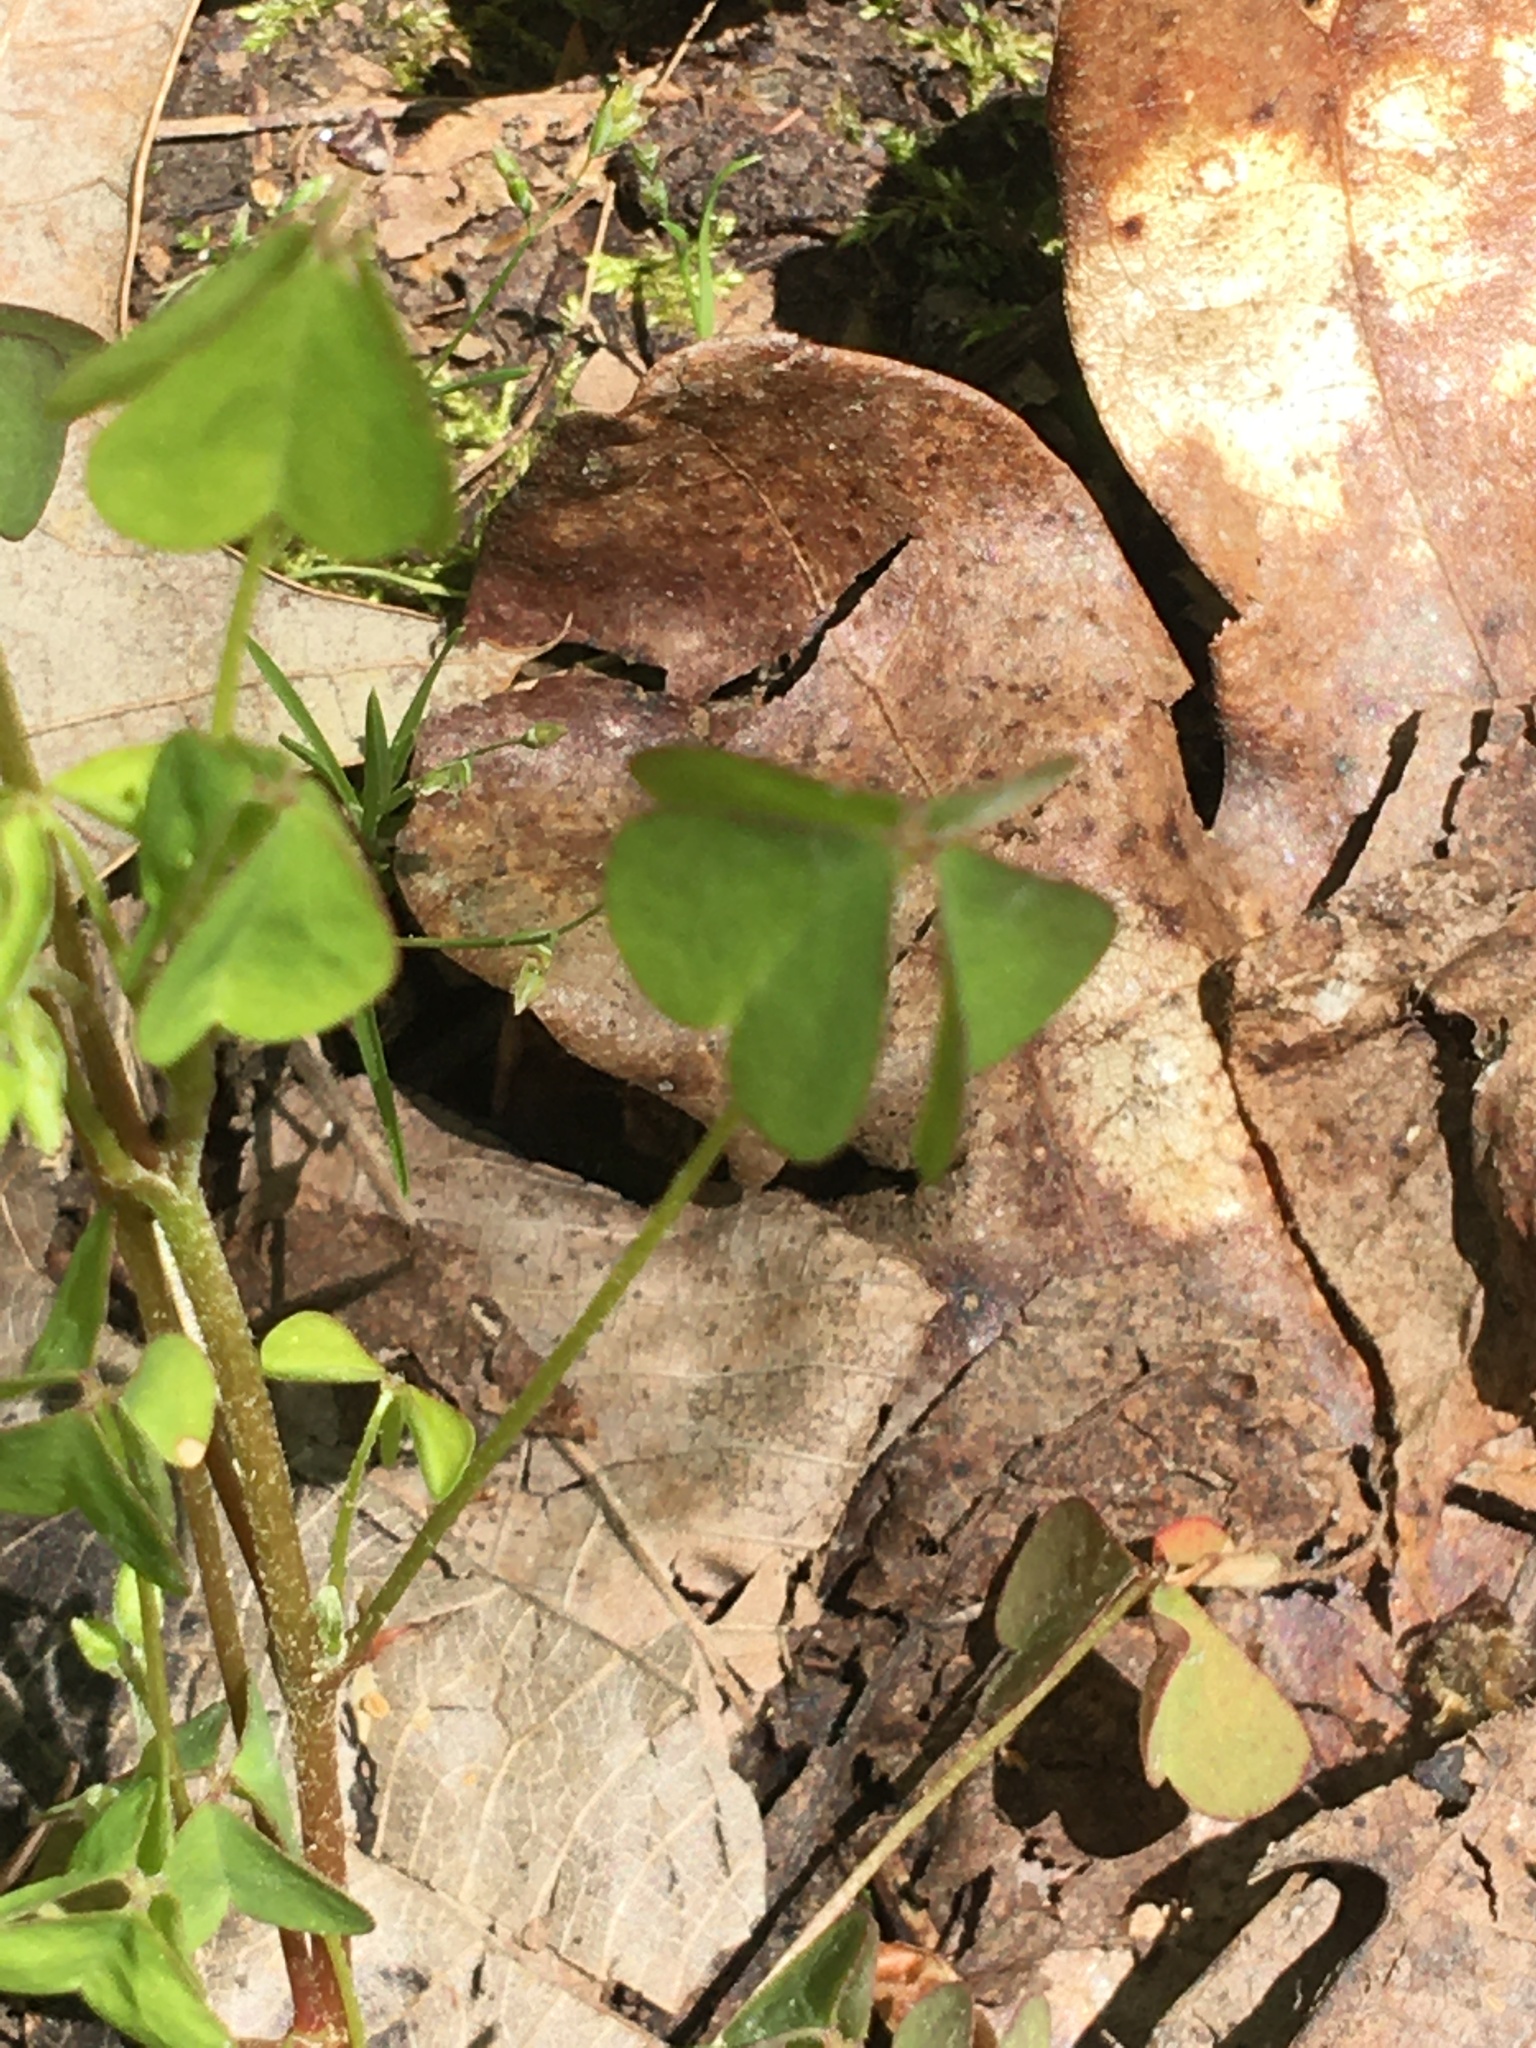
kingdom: Plantae
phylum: Tracheophyta
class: Magnoliopsida
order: Oxalidales
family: Oxalidaceae
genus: Oxalis
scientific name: Oxalis dillenii
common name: Sussex yellow-sorrel
